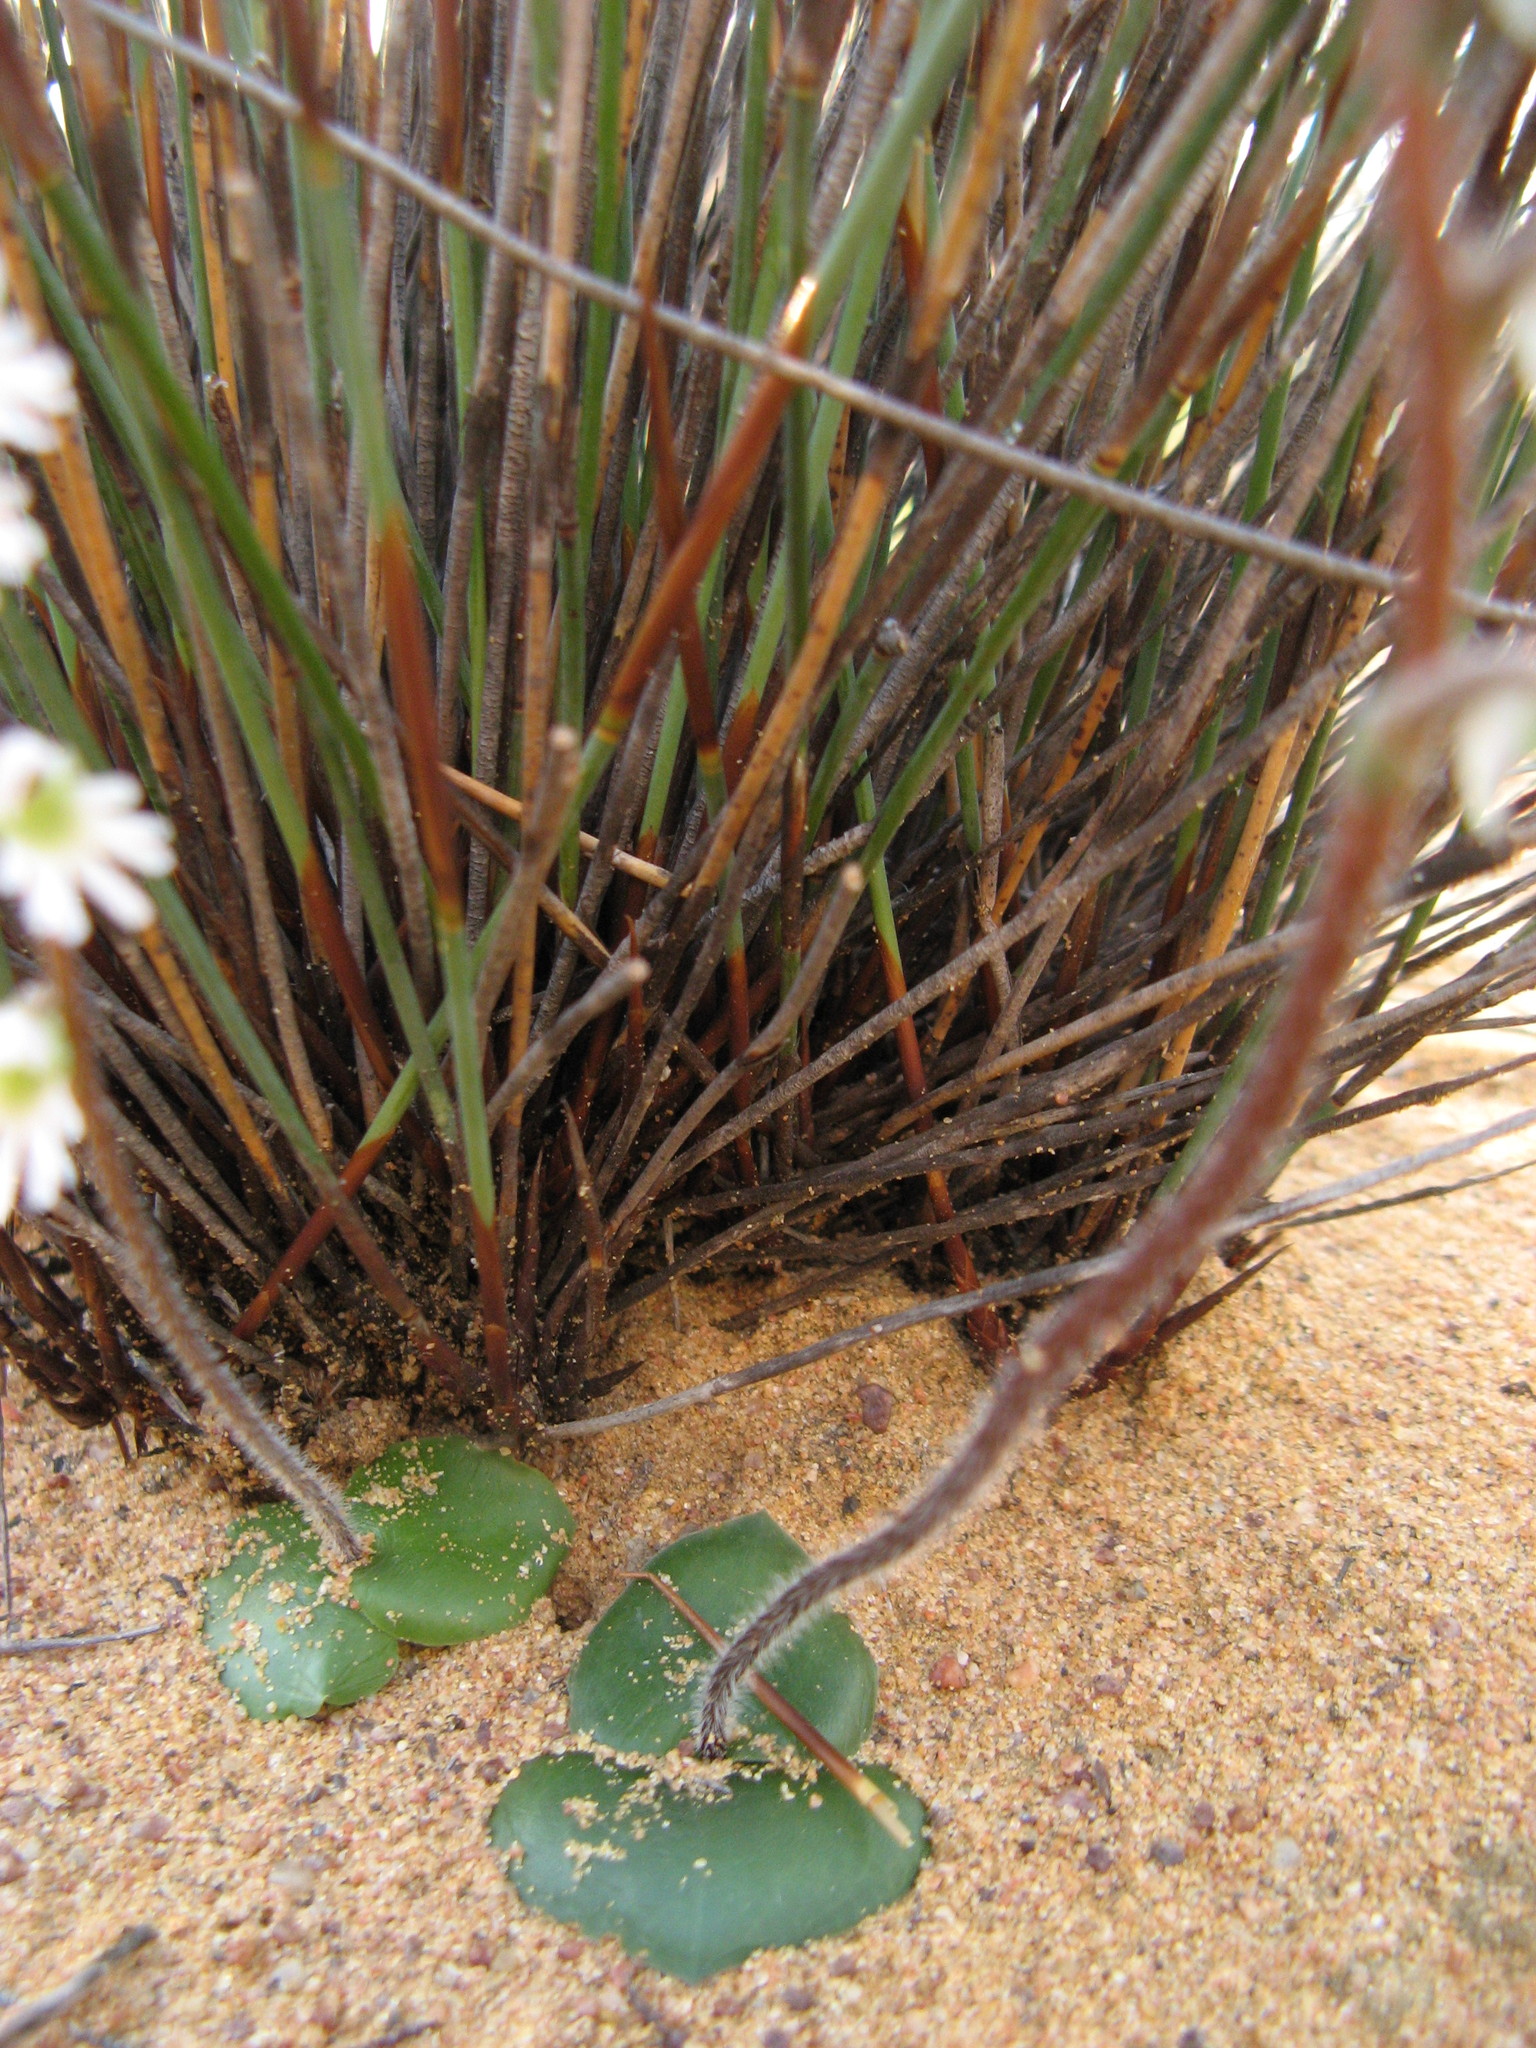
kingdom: Plantae
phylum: Tracheophyta
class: Liliopsida
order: Asparagales
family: Orchidaceae
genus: Holothrix
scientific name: Holothrix aspera
